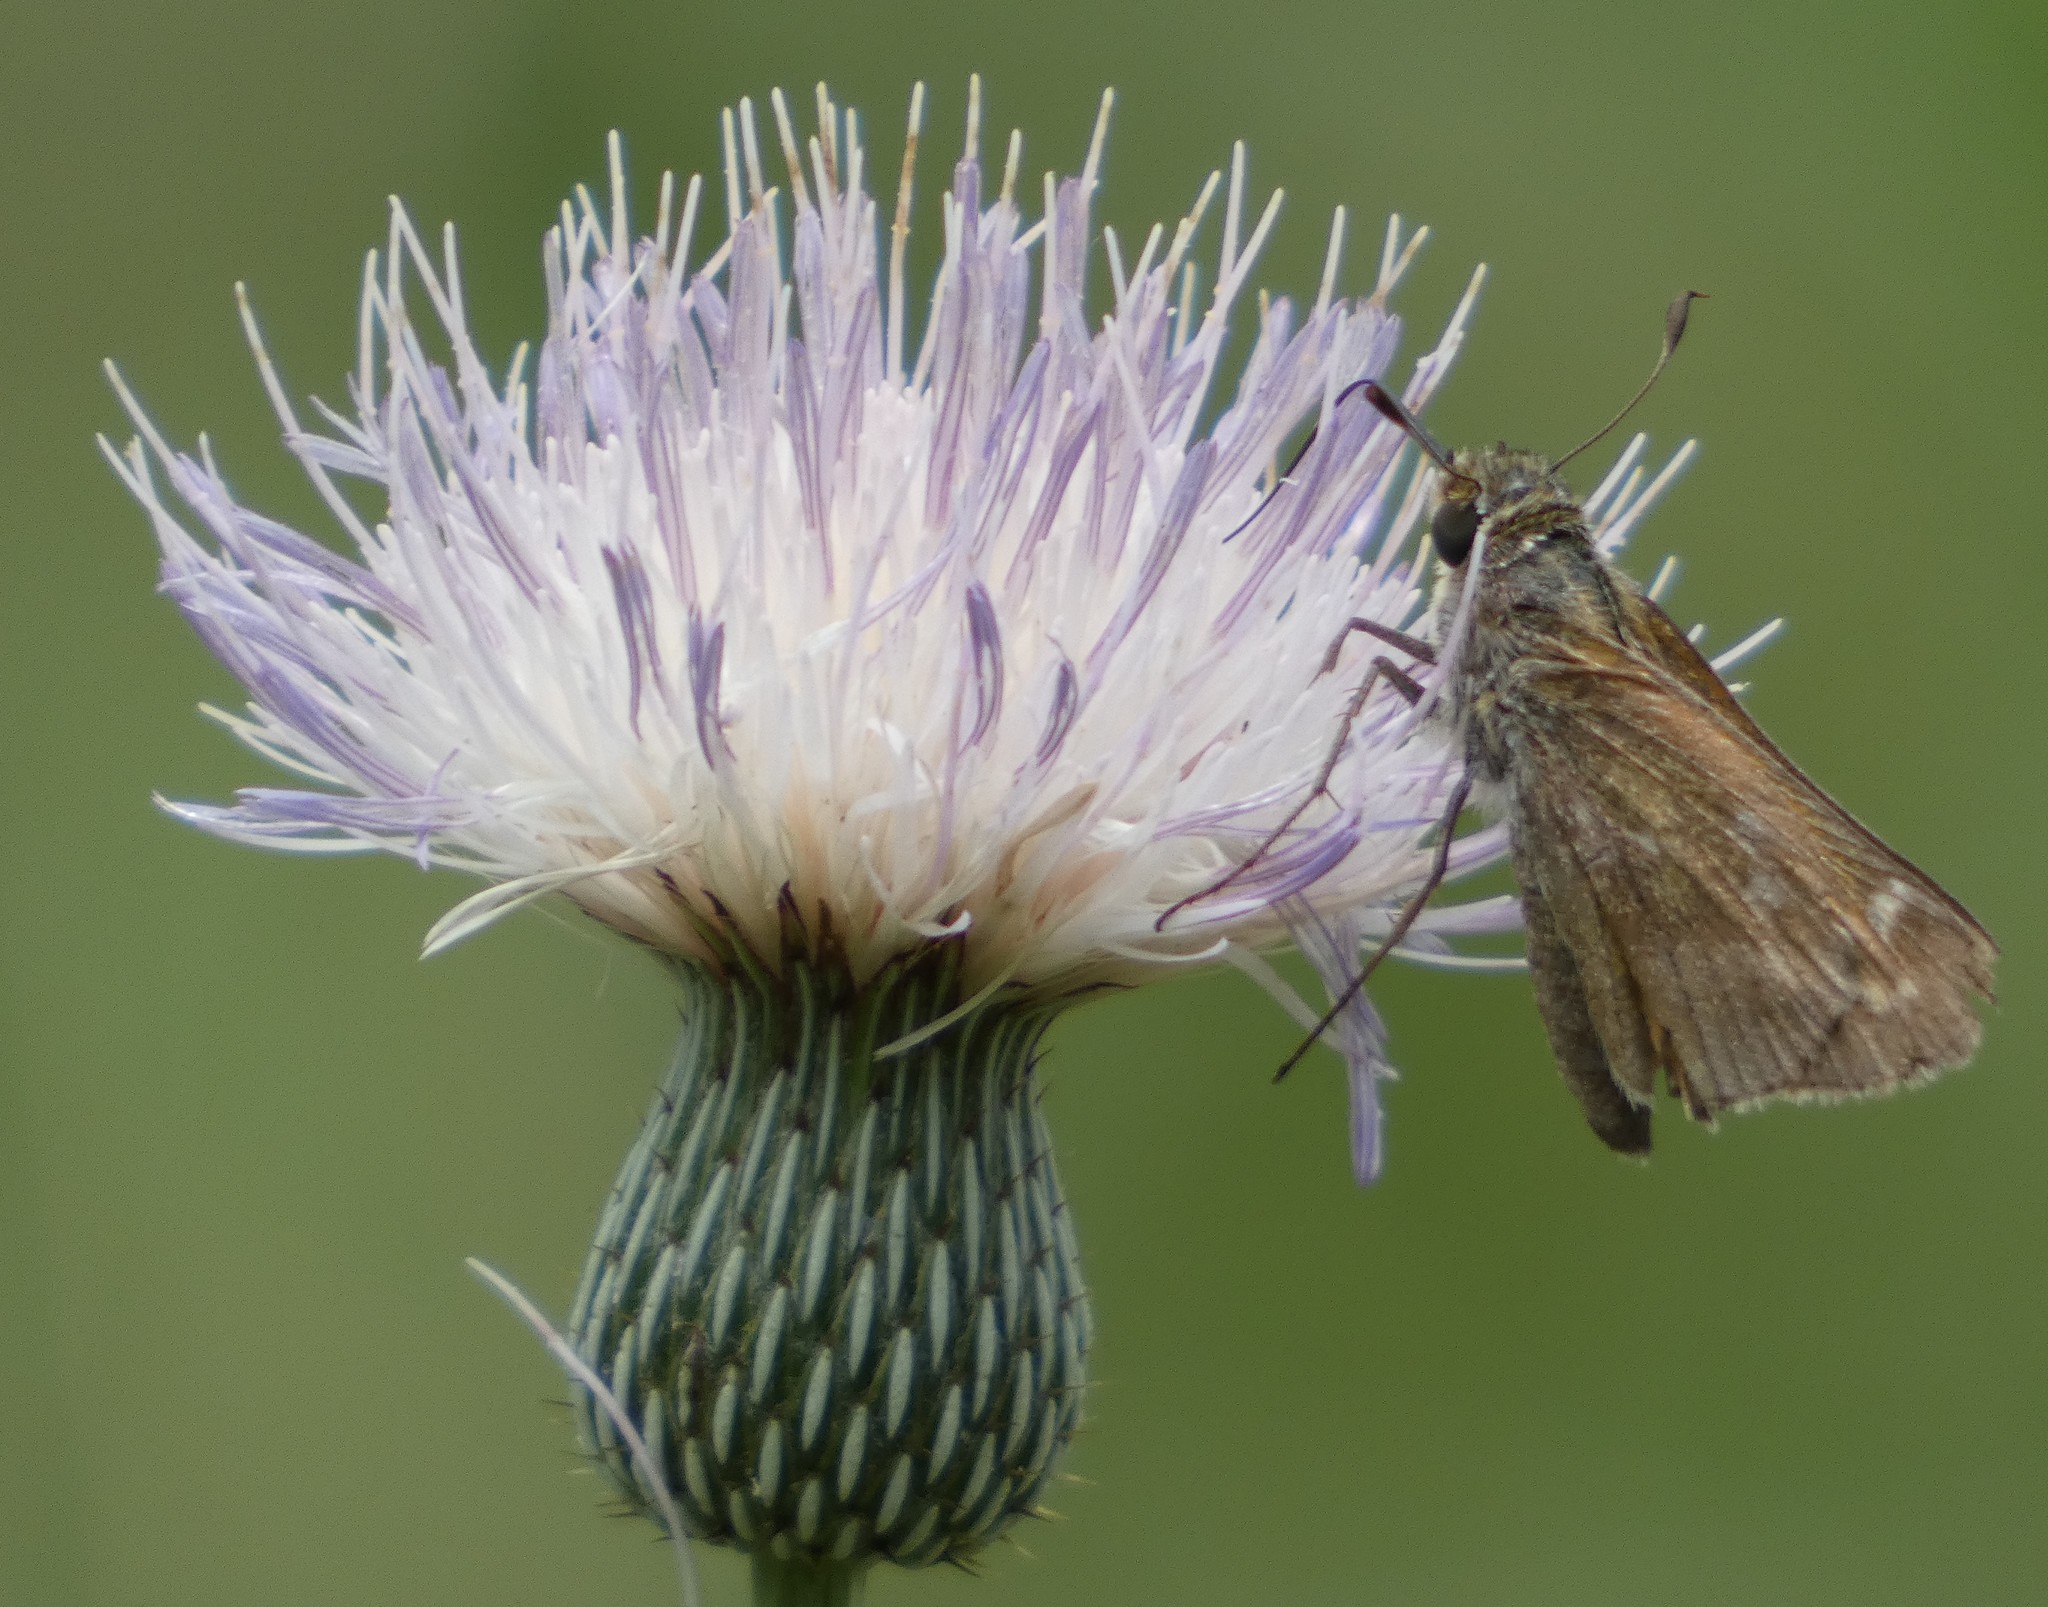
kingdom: Animalia
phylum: Arthropoda
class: Insecta
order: Lepidoptera
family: Hesperiidae
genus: Atalopedes
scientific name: Atalopedes
